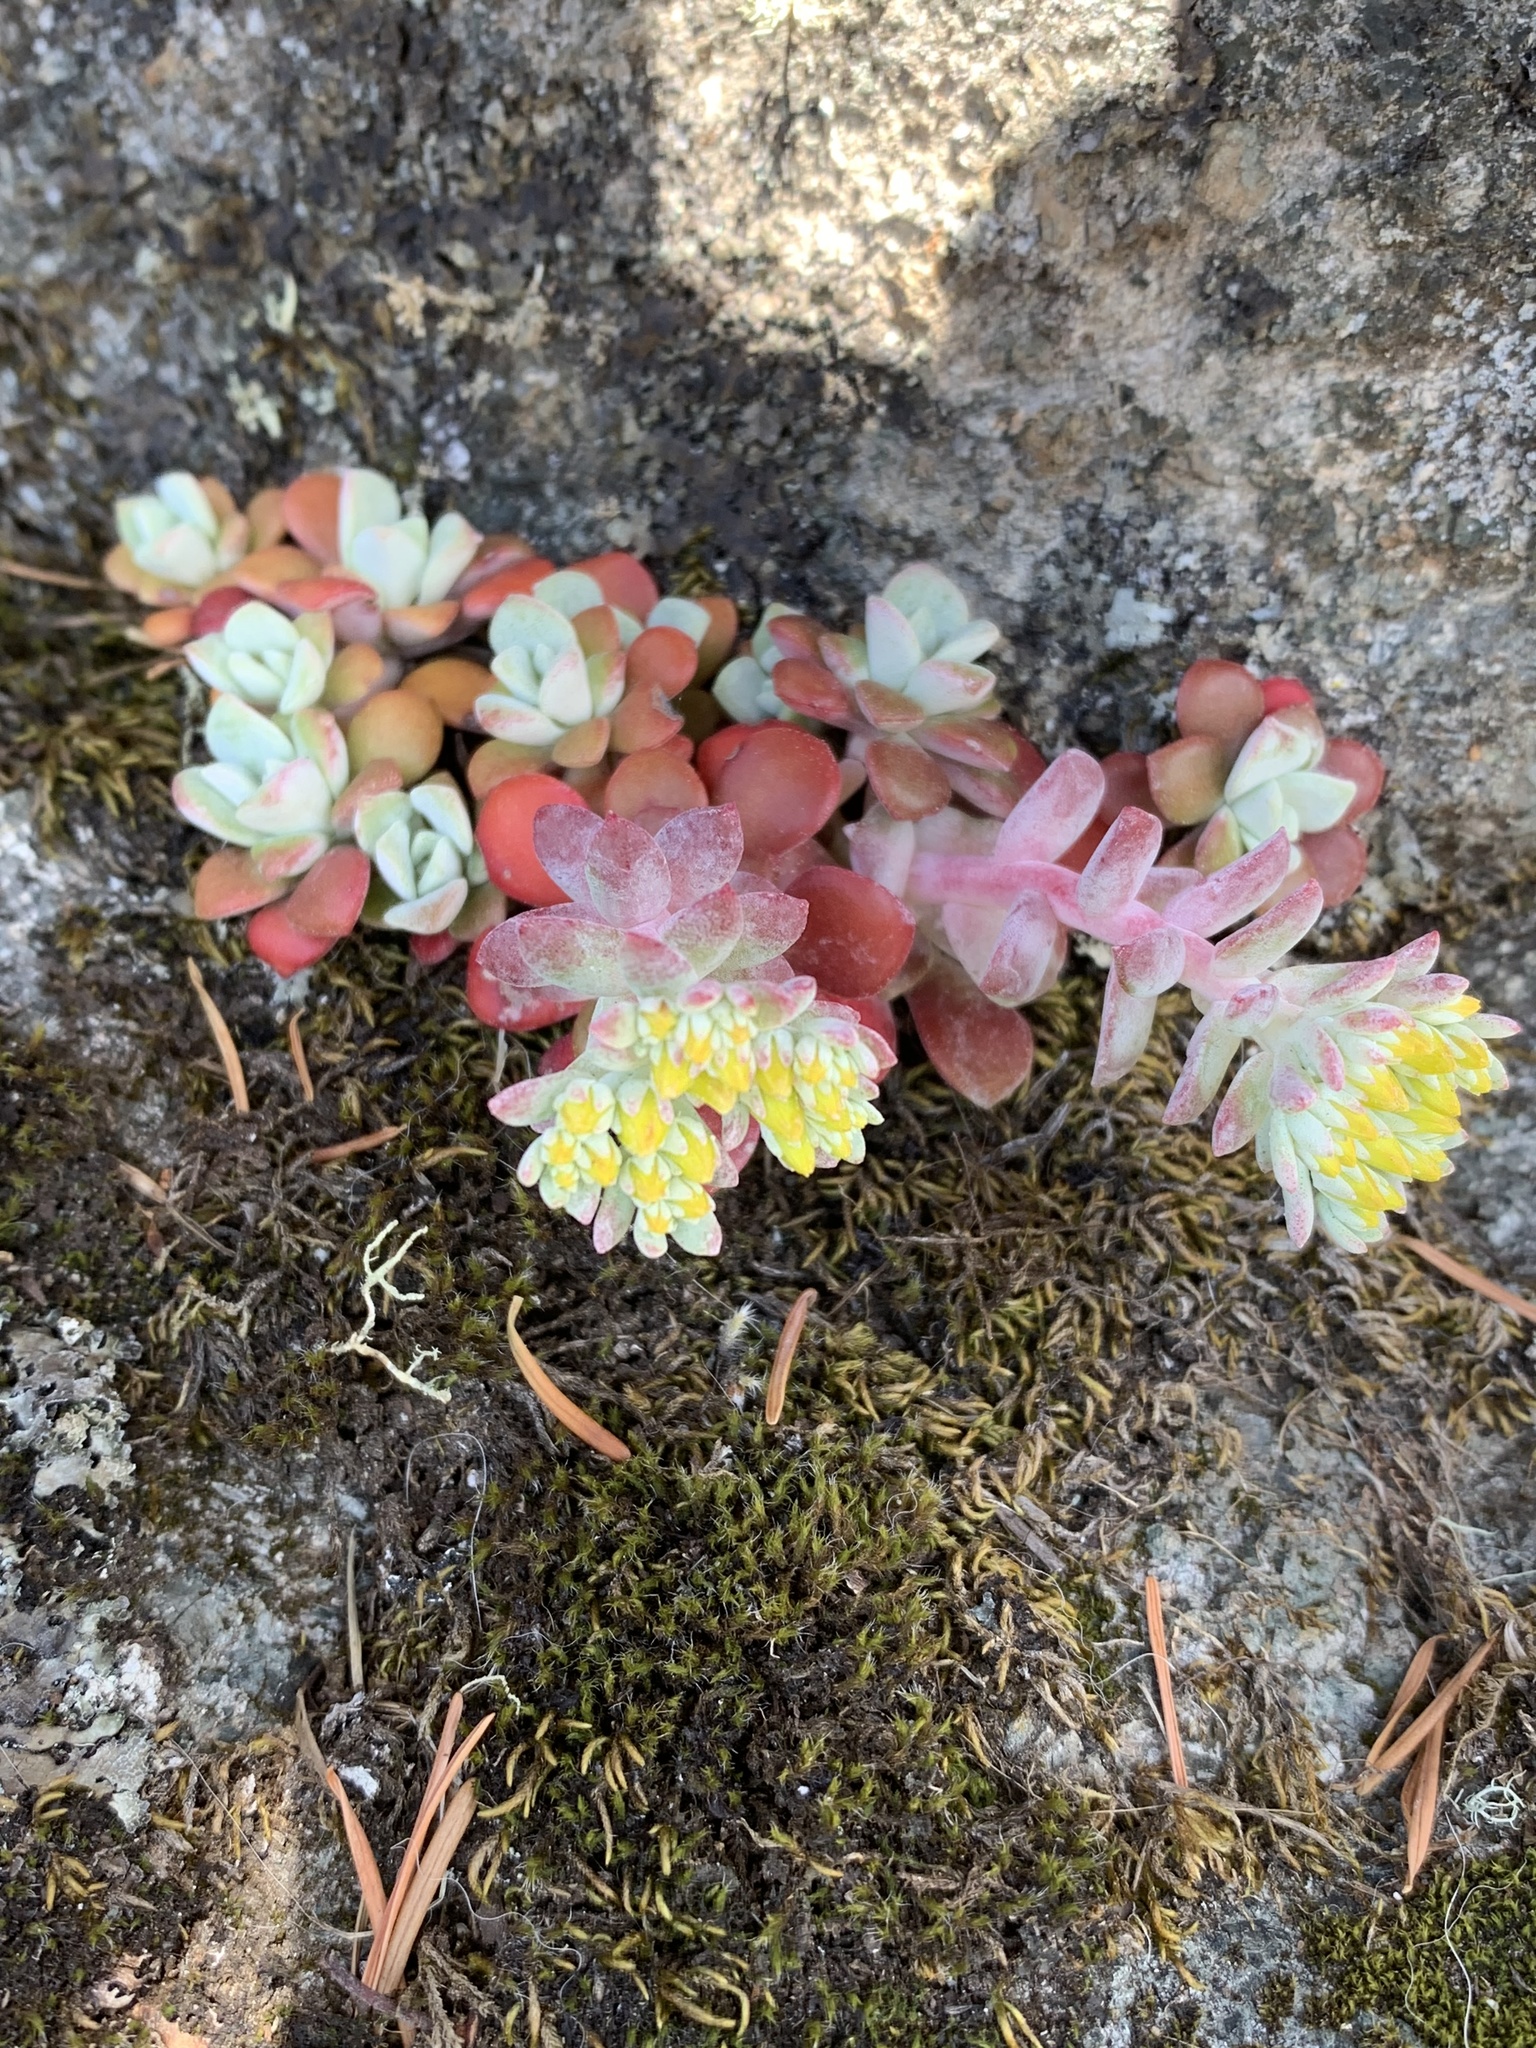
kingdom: Plantae
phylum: Tracheophyta
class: Magnoliopsida
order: Saxifragales
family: Crassulaceae
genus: Sedum
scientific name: Sedum spathulifolium
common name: Colorado stonecrop
